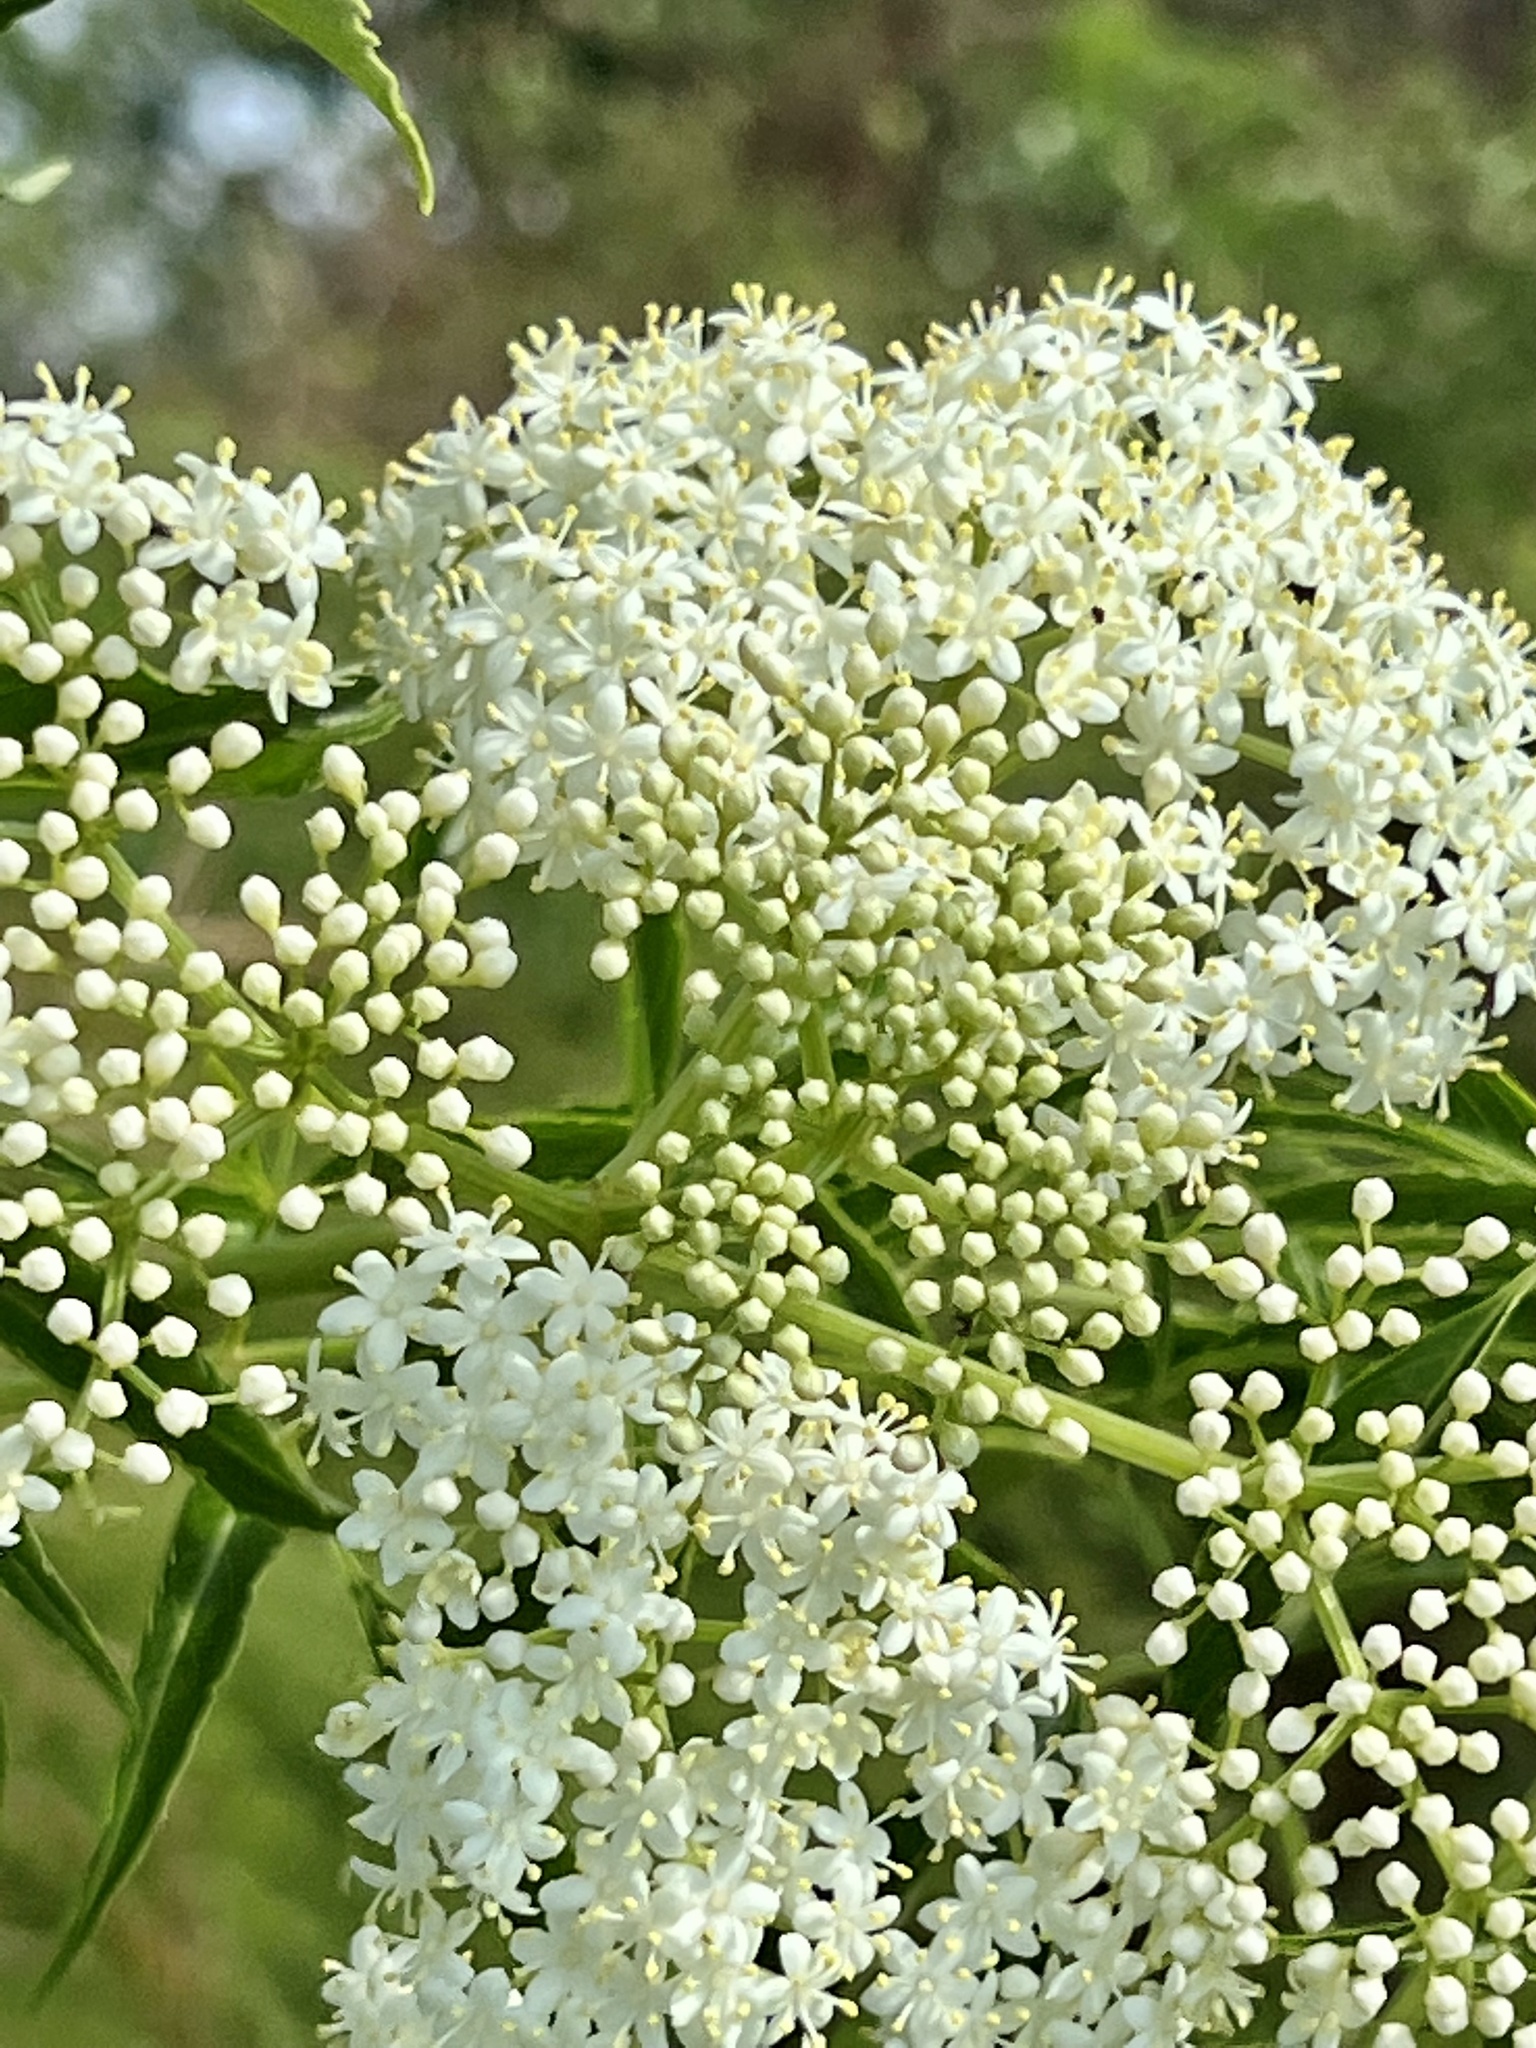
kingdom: Plantae
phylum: Tracheophyta
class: Magnoliopsida
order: Dipsacales
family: Viburnaceae
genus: Sambucus
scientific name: Sambucus canadensis
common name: American elder
